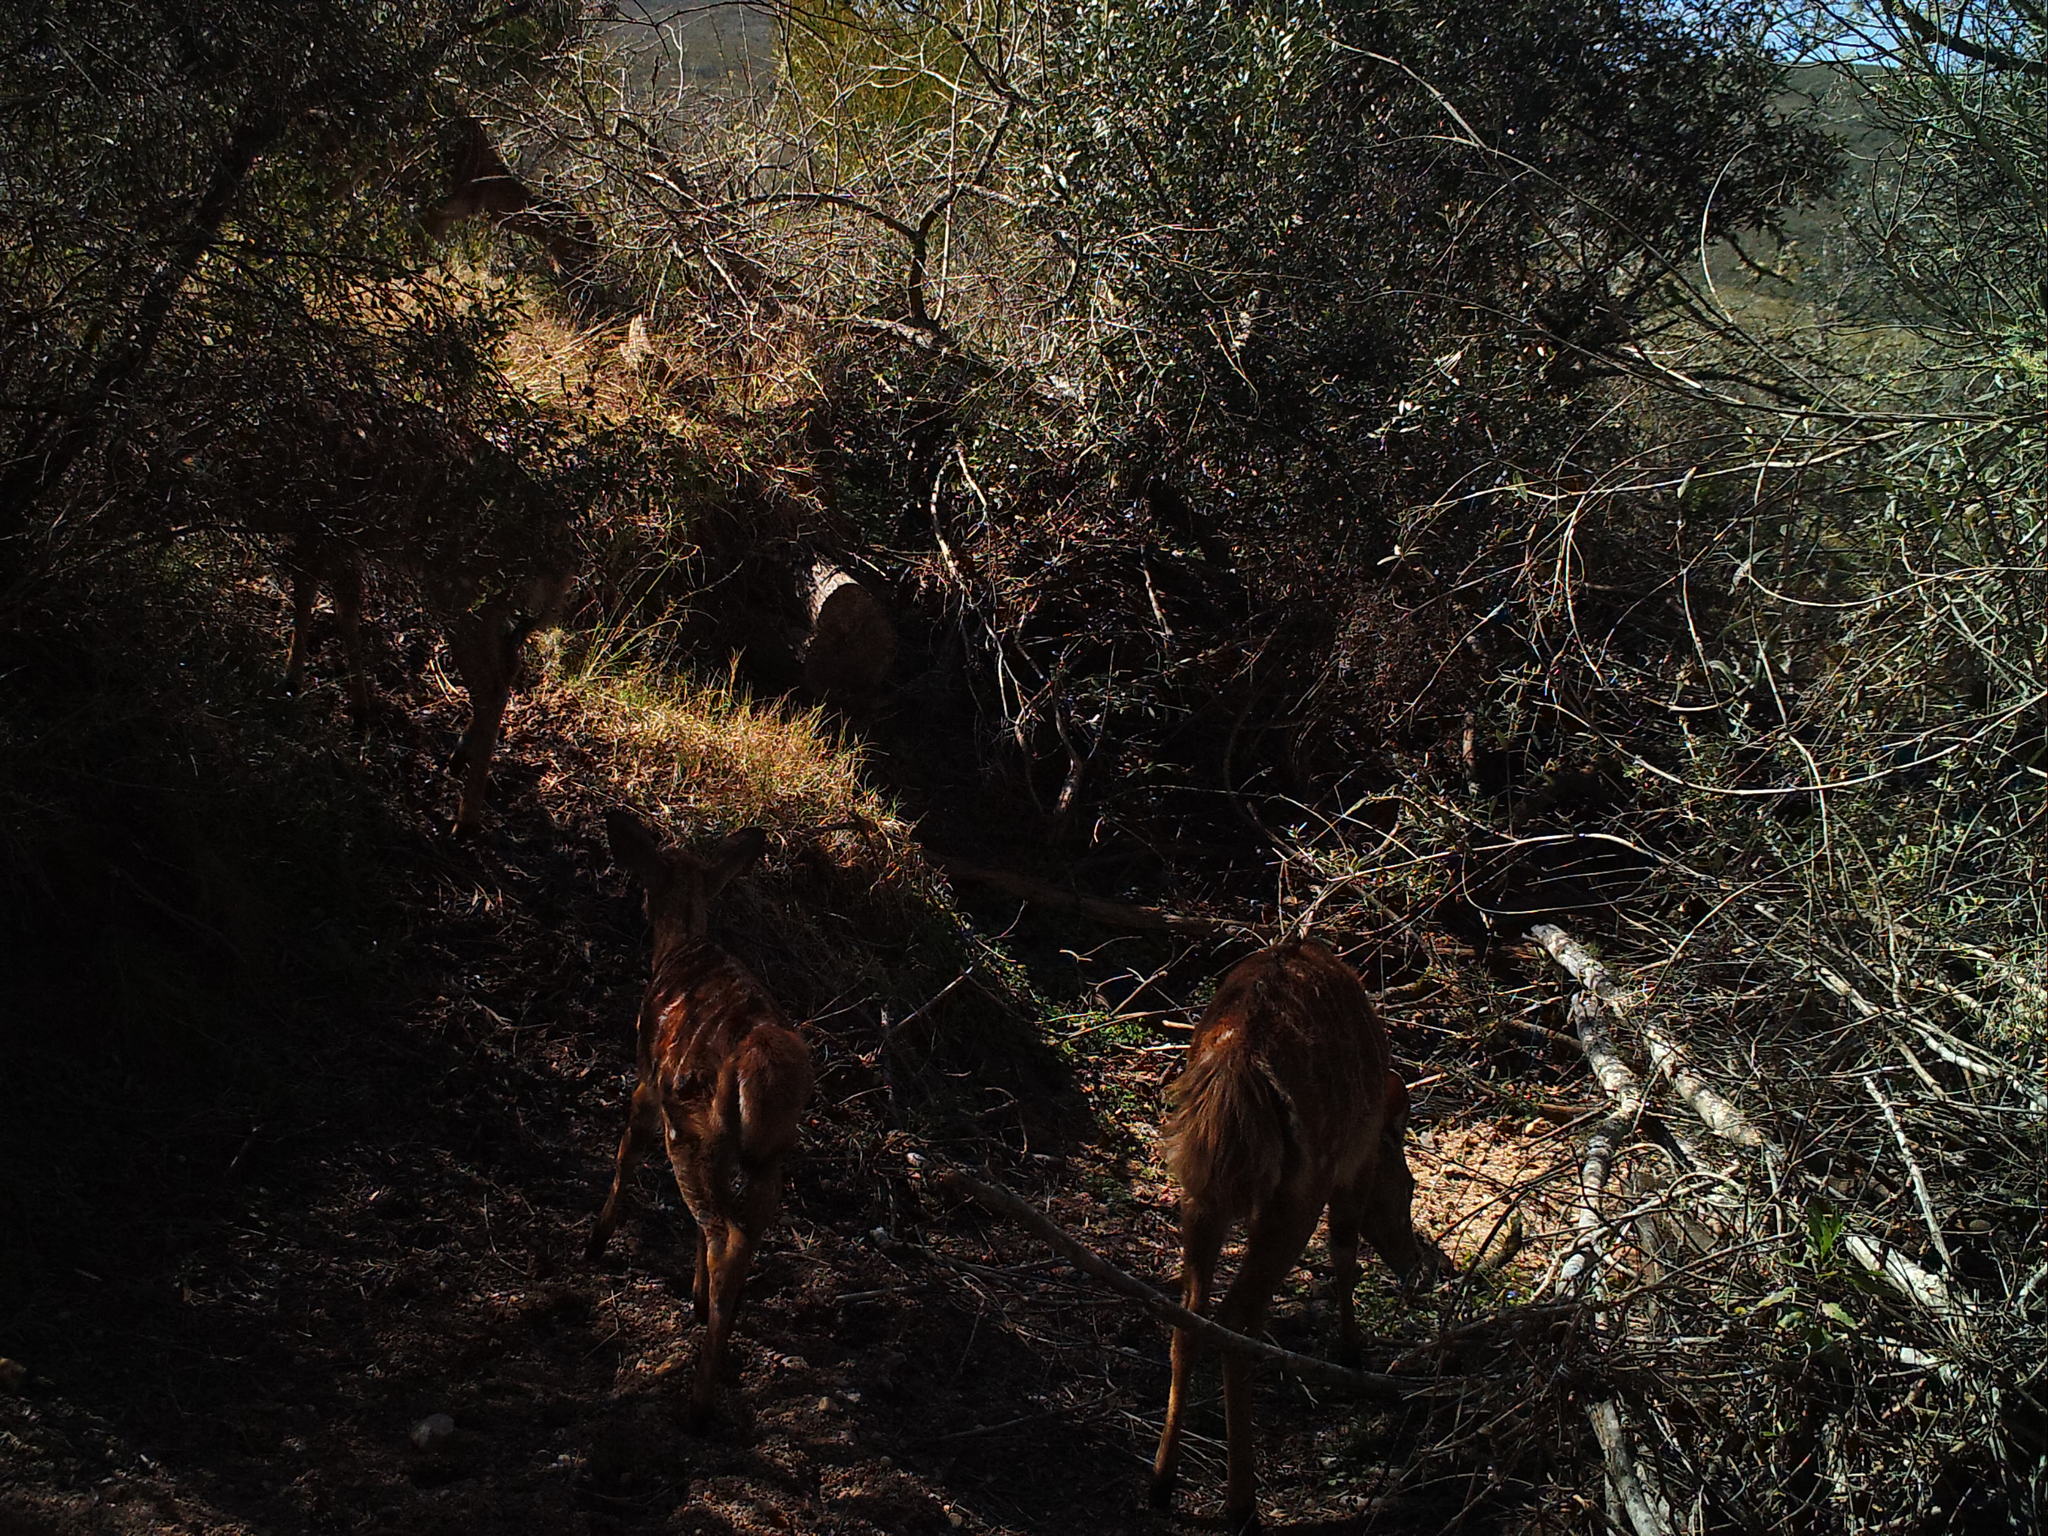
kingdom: Animalia
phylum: Chordata
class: Mammalia
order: Artiodactyla
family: Bovidae
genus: Tragelaphus
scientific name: Tragelaphus angasii
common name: Nyala
